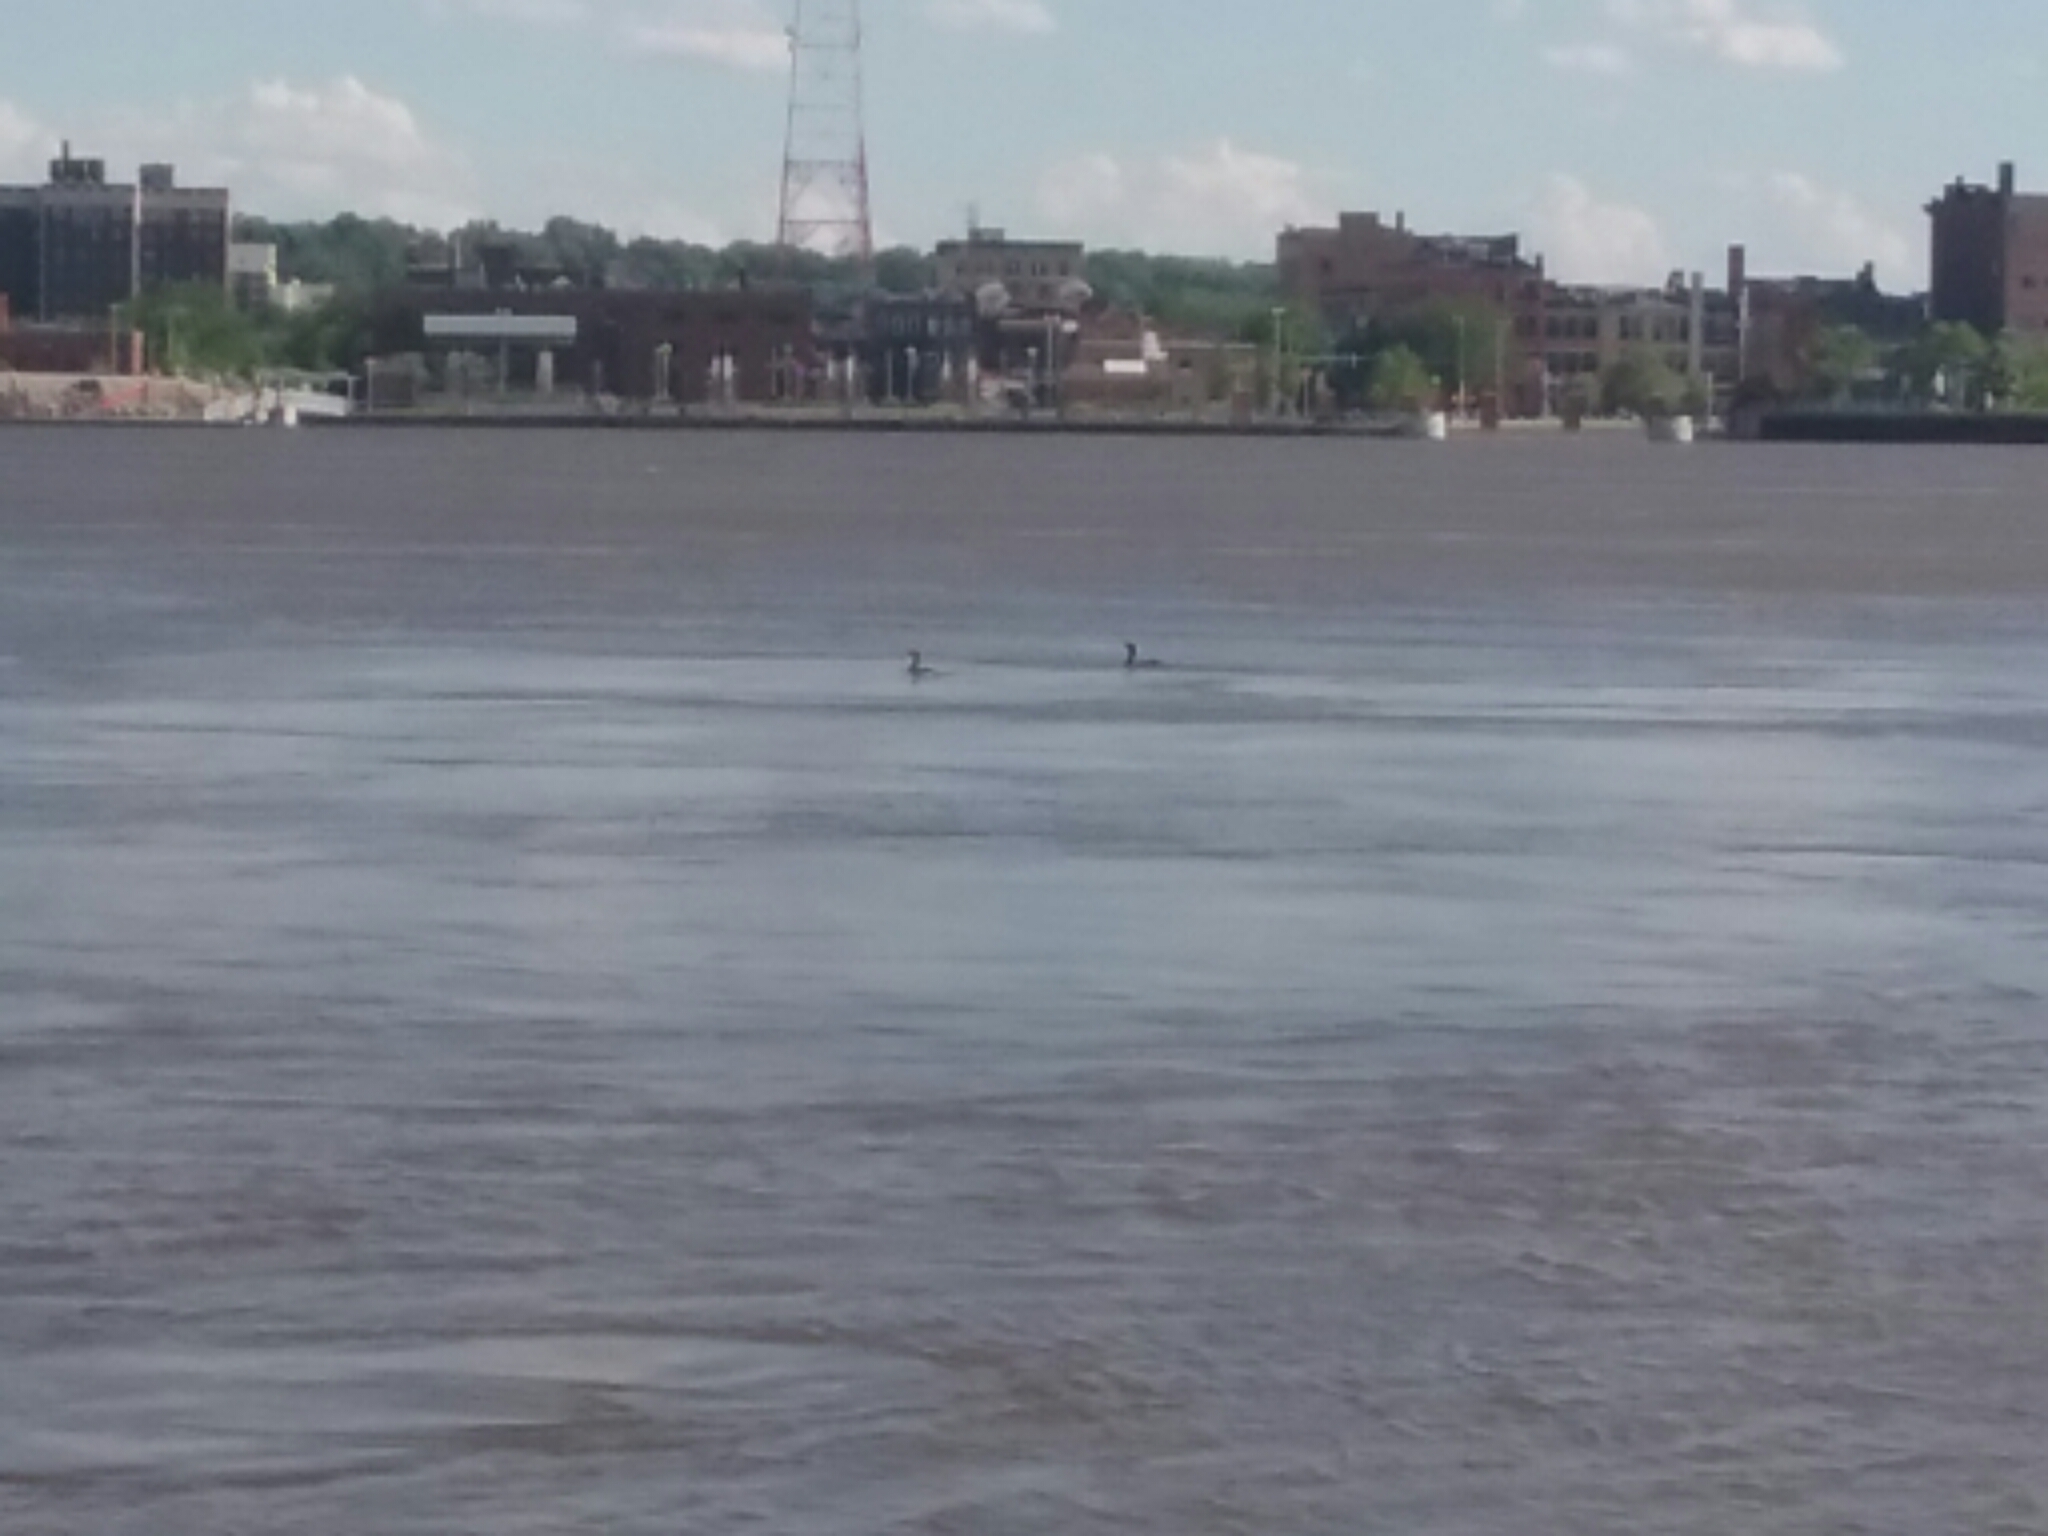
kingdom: Animalia
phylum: Chordata
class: Aves
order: Suliformes
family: Phalacrocoracidae
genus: Phalacrocorax
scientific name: Phalacrocorax auritus
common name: Double-crested cormorant
